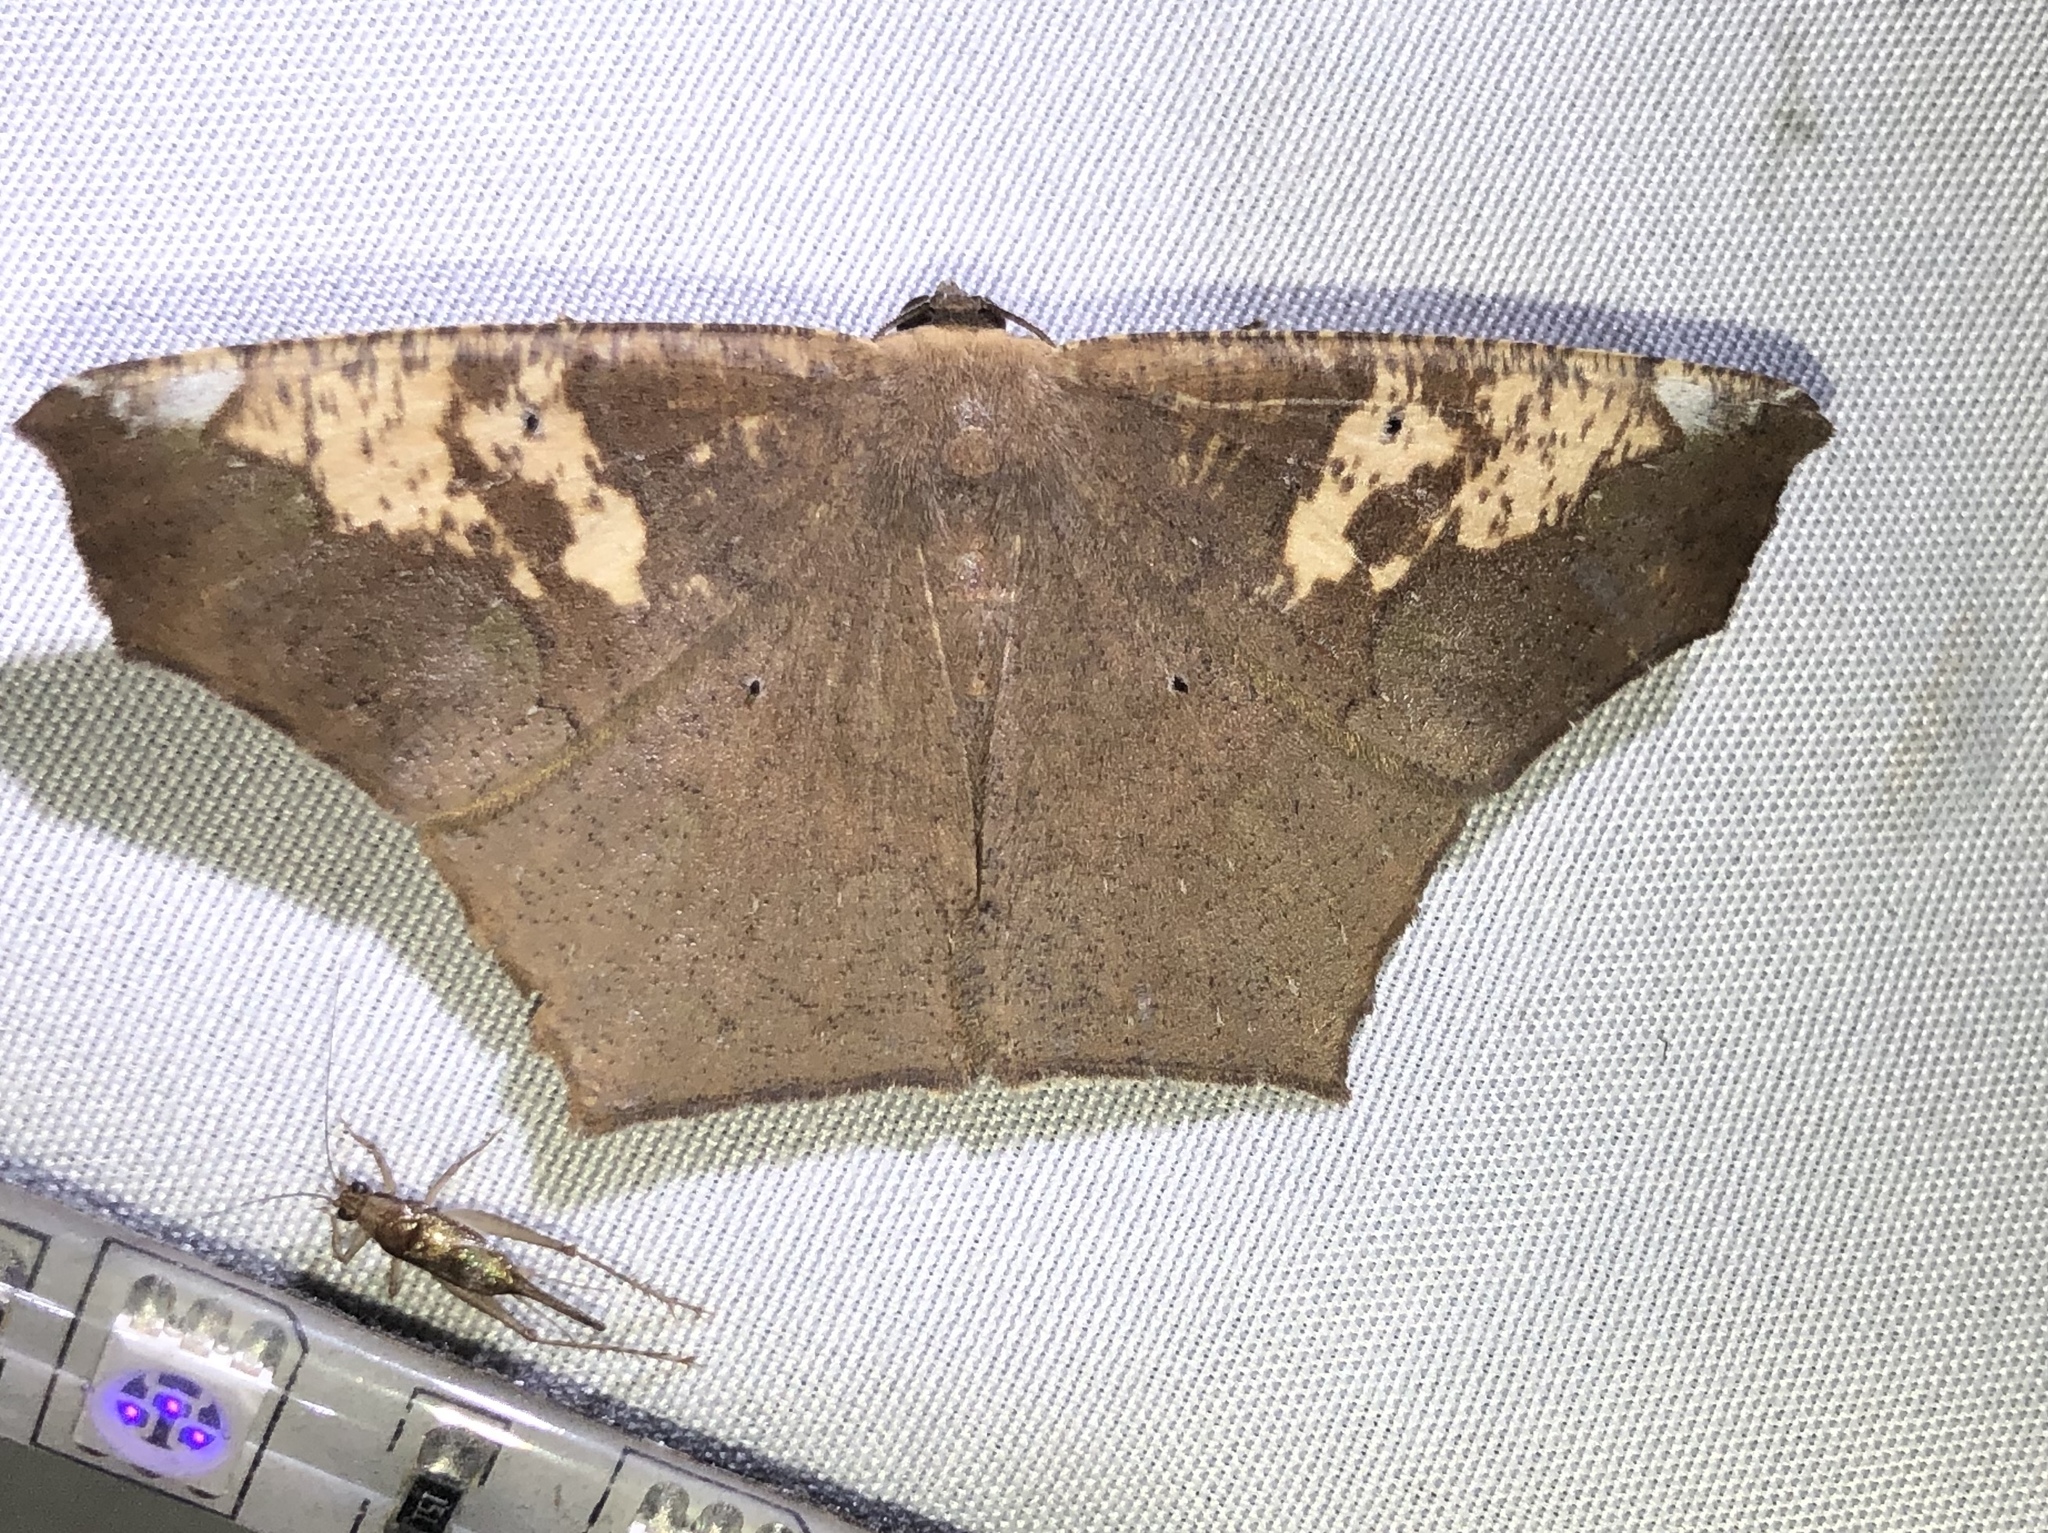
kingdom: Animalia
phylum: Arthropoda
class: Insecta
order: Lepidoptera
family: Geometridae
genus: Paragonia
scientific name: Paragonia cruraria
